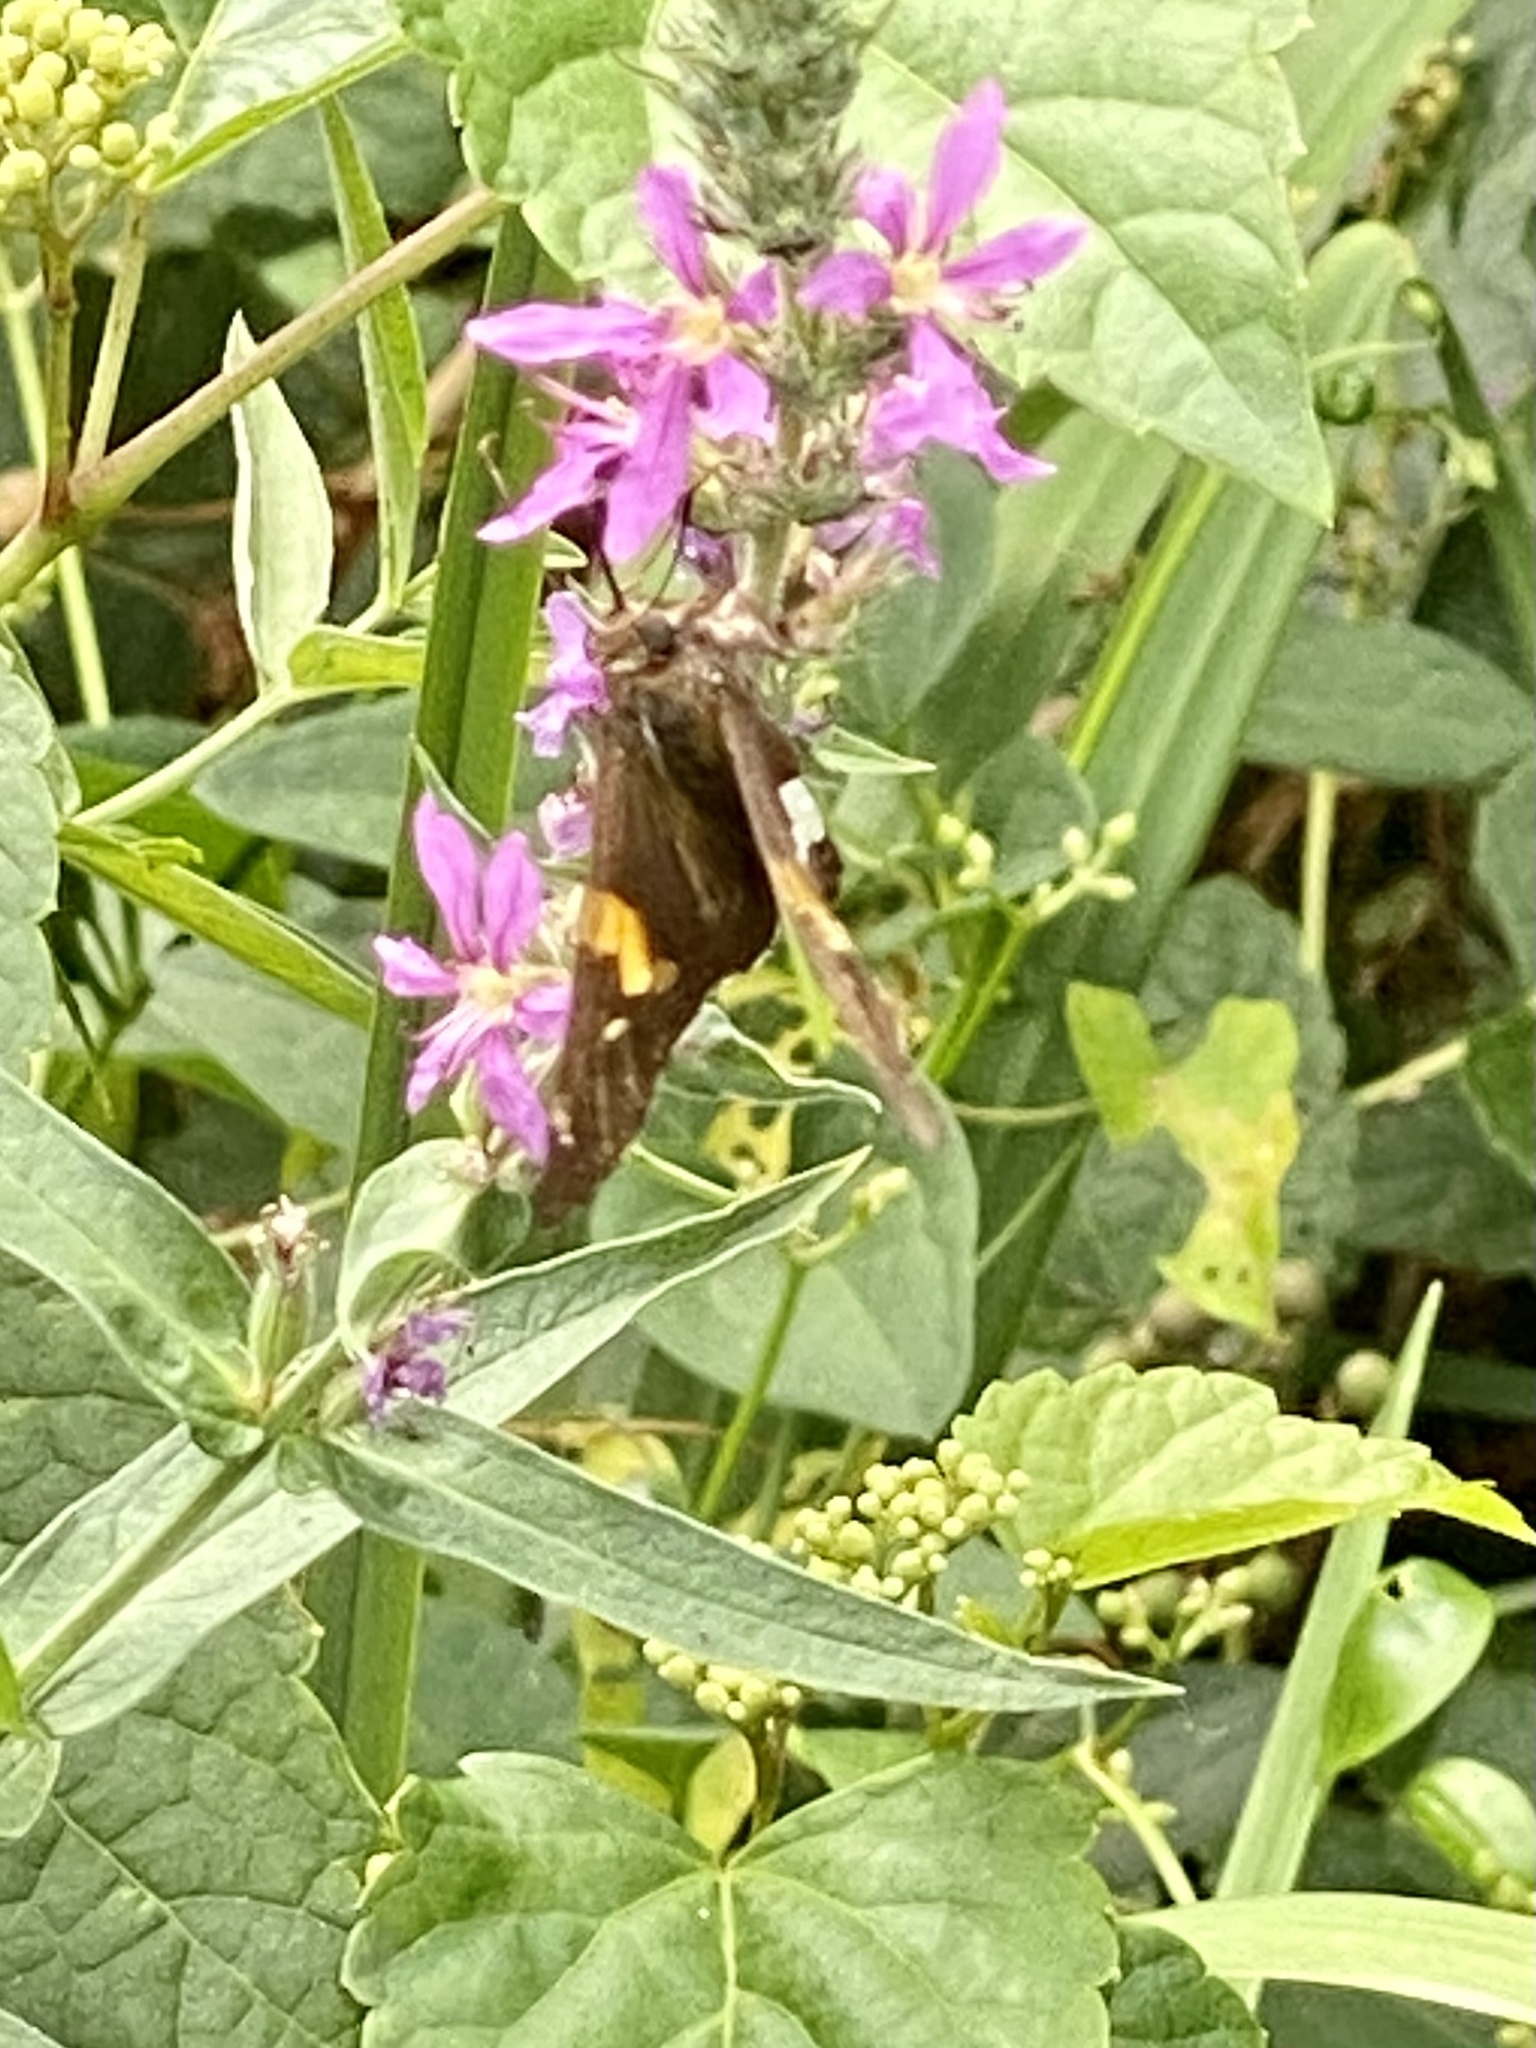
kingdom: Animalia
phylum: Arthropoda
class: Insecta
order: Lepidoptera
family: Hesperiidae
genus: Epargyreus
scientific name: Epargyreus clarus
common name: Silver-spotted skipper
